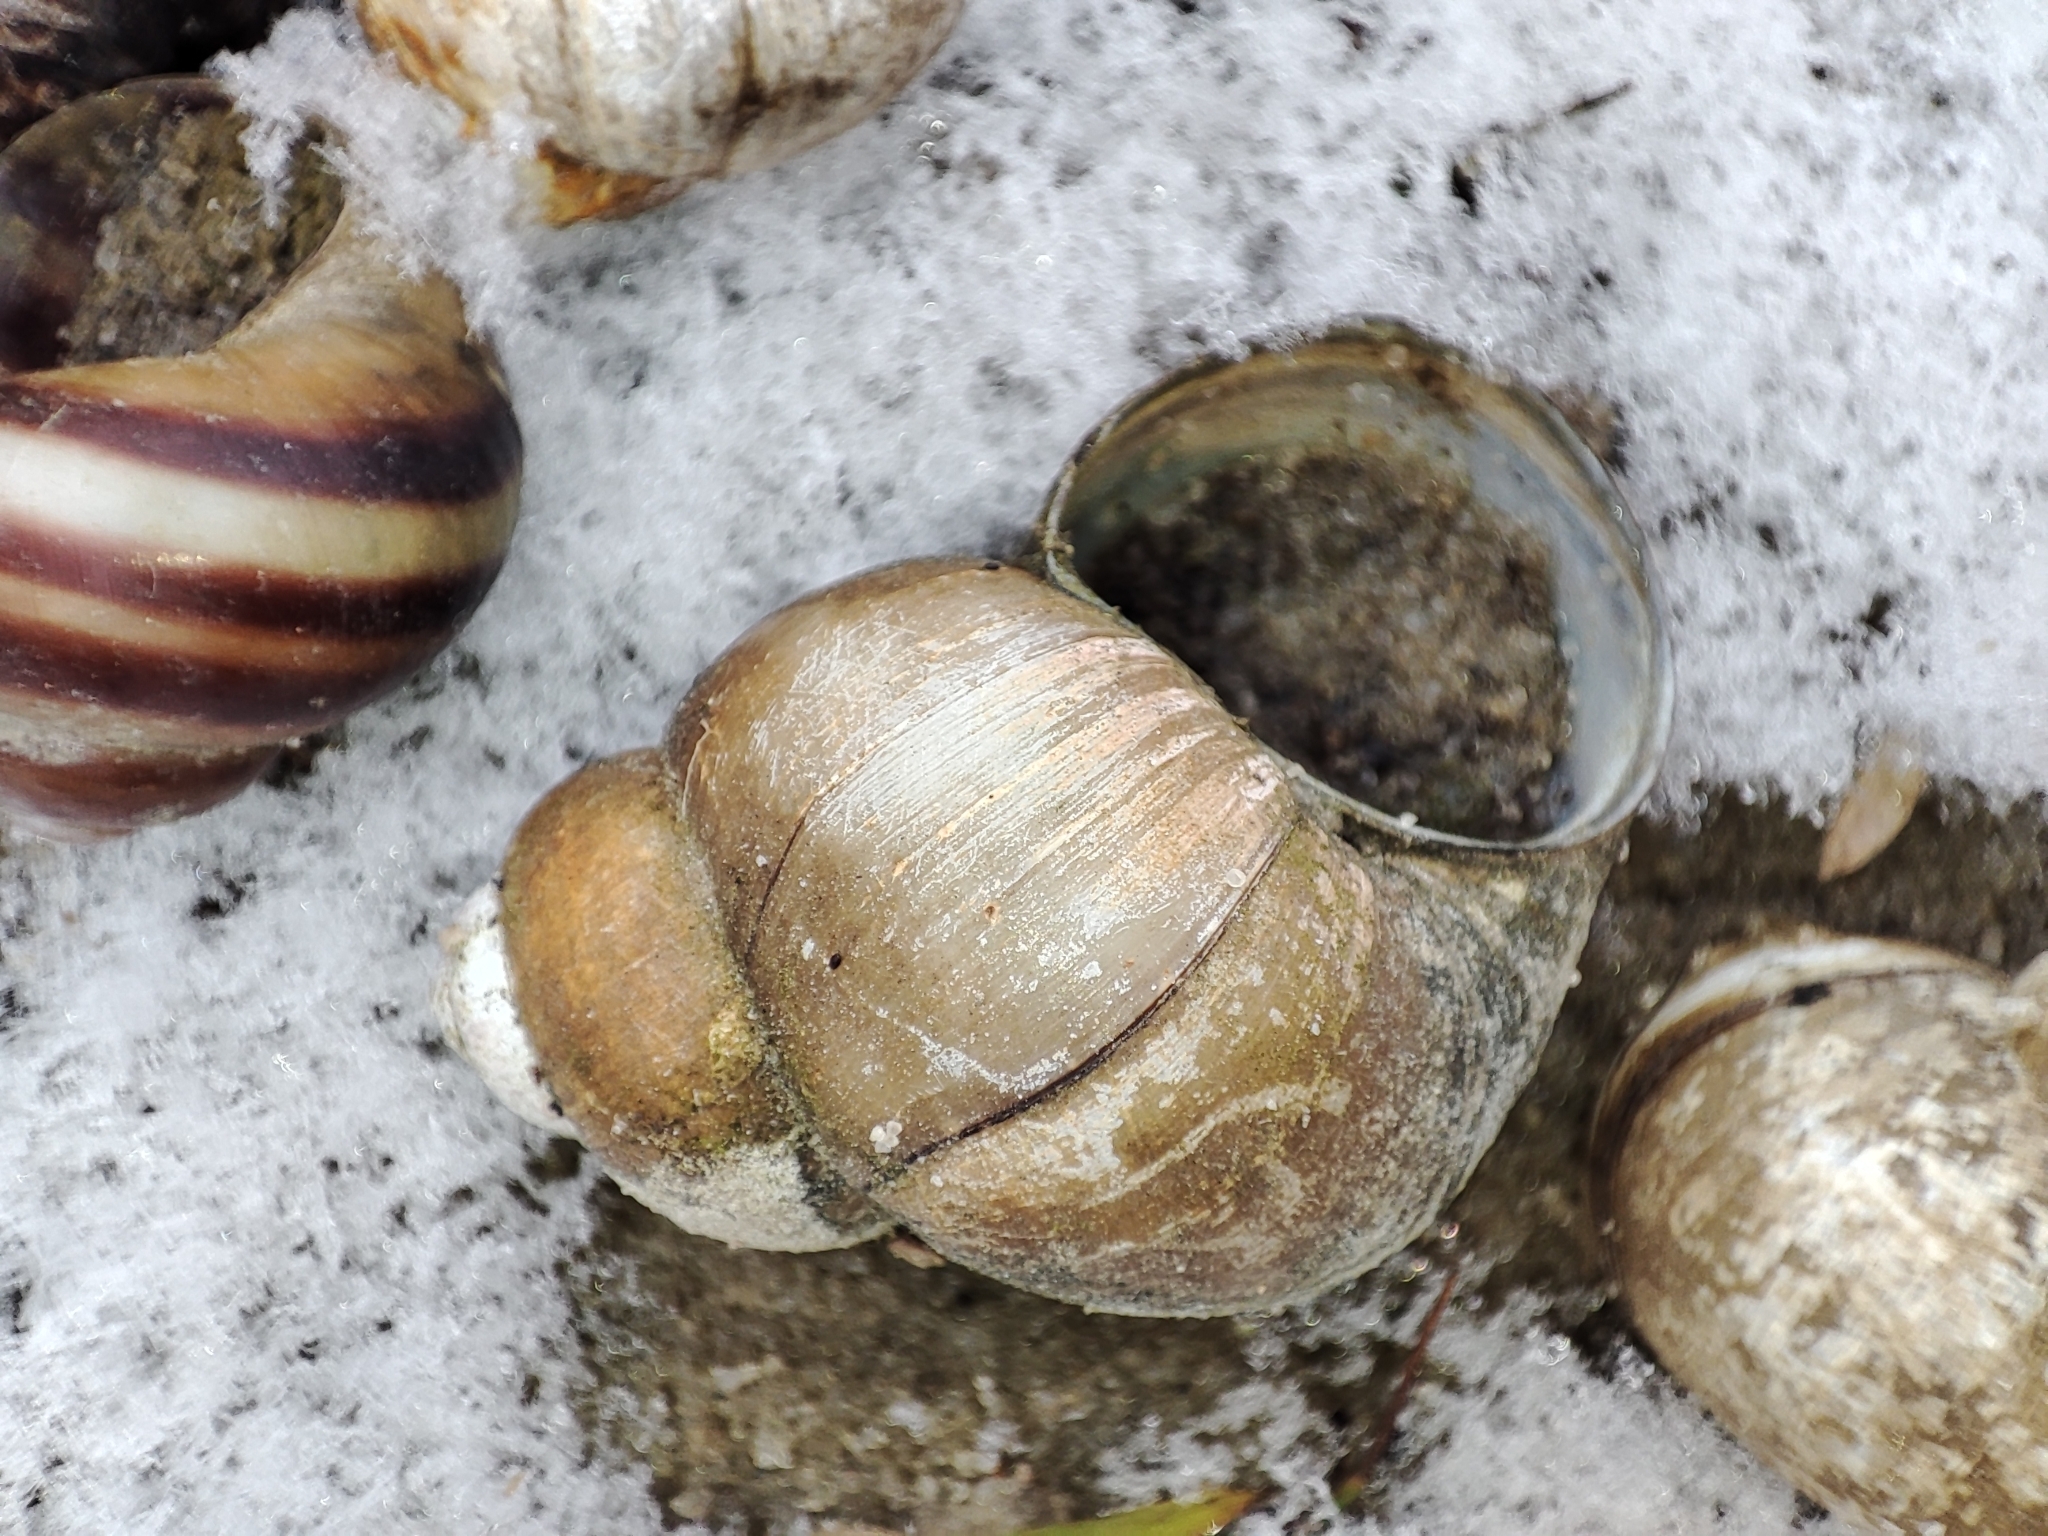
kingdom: Animalia
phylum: Mollusca
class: Gastropoda
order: Architaenioglossa
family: Viviparidae
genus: Viviparus
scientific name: Viviparus viviparus
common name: River snail
